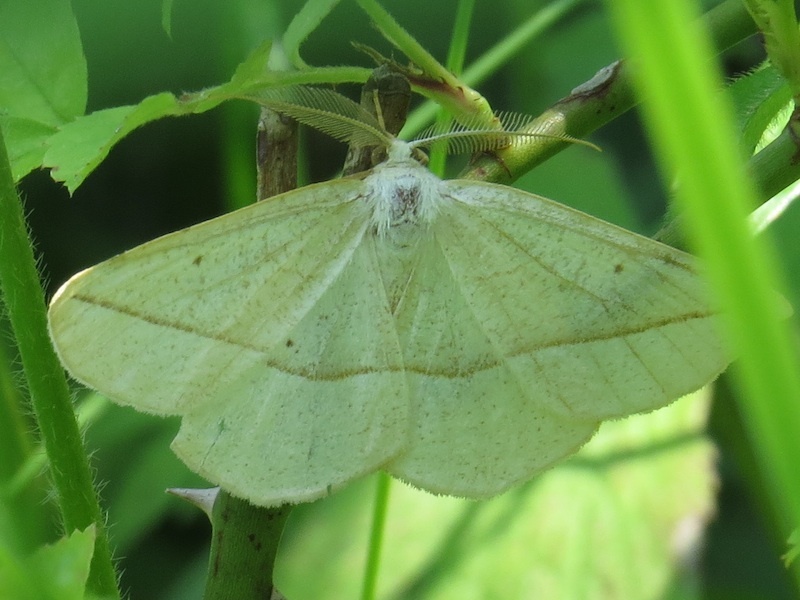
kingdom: Animalia
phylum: Arthropoda
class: Insecta
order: Lepidoptera
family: Geometridae
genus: Eusarca
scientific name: Eusarca confusaria
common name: Confused eusarca
